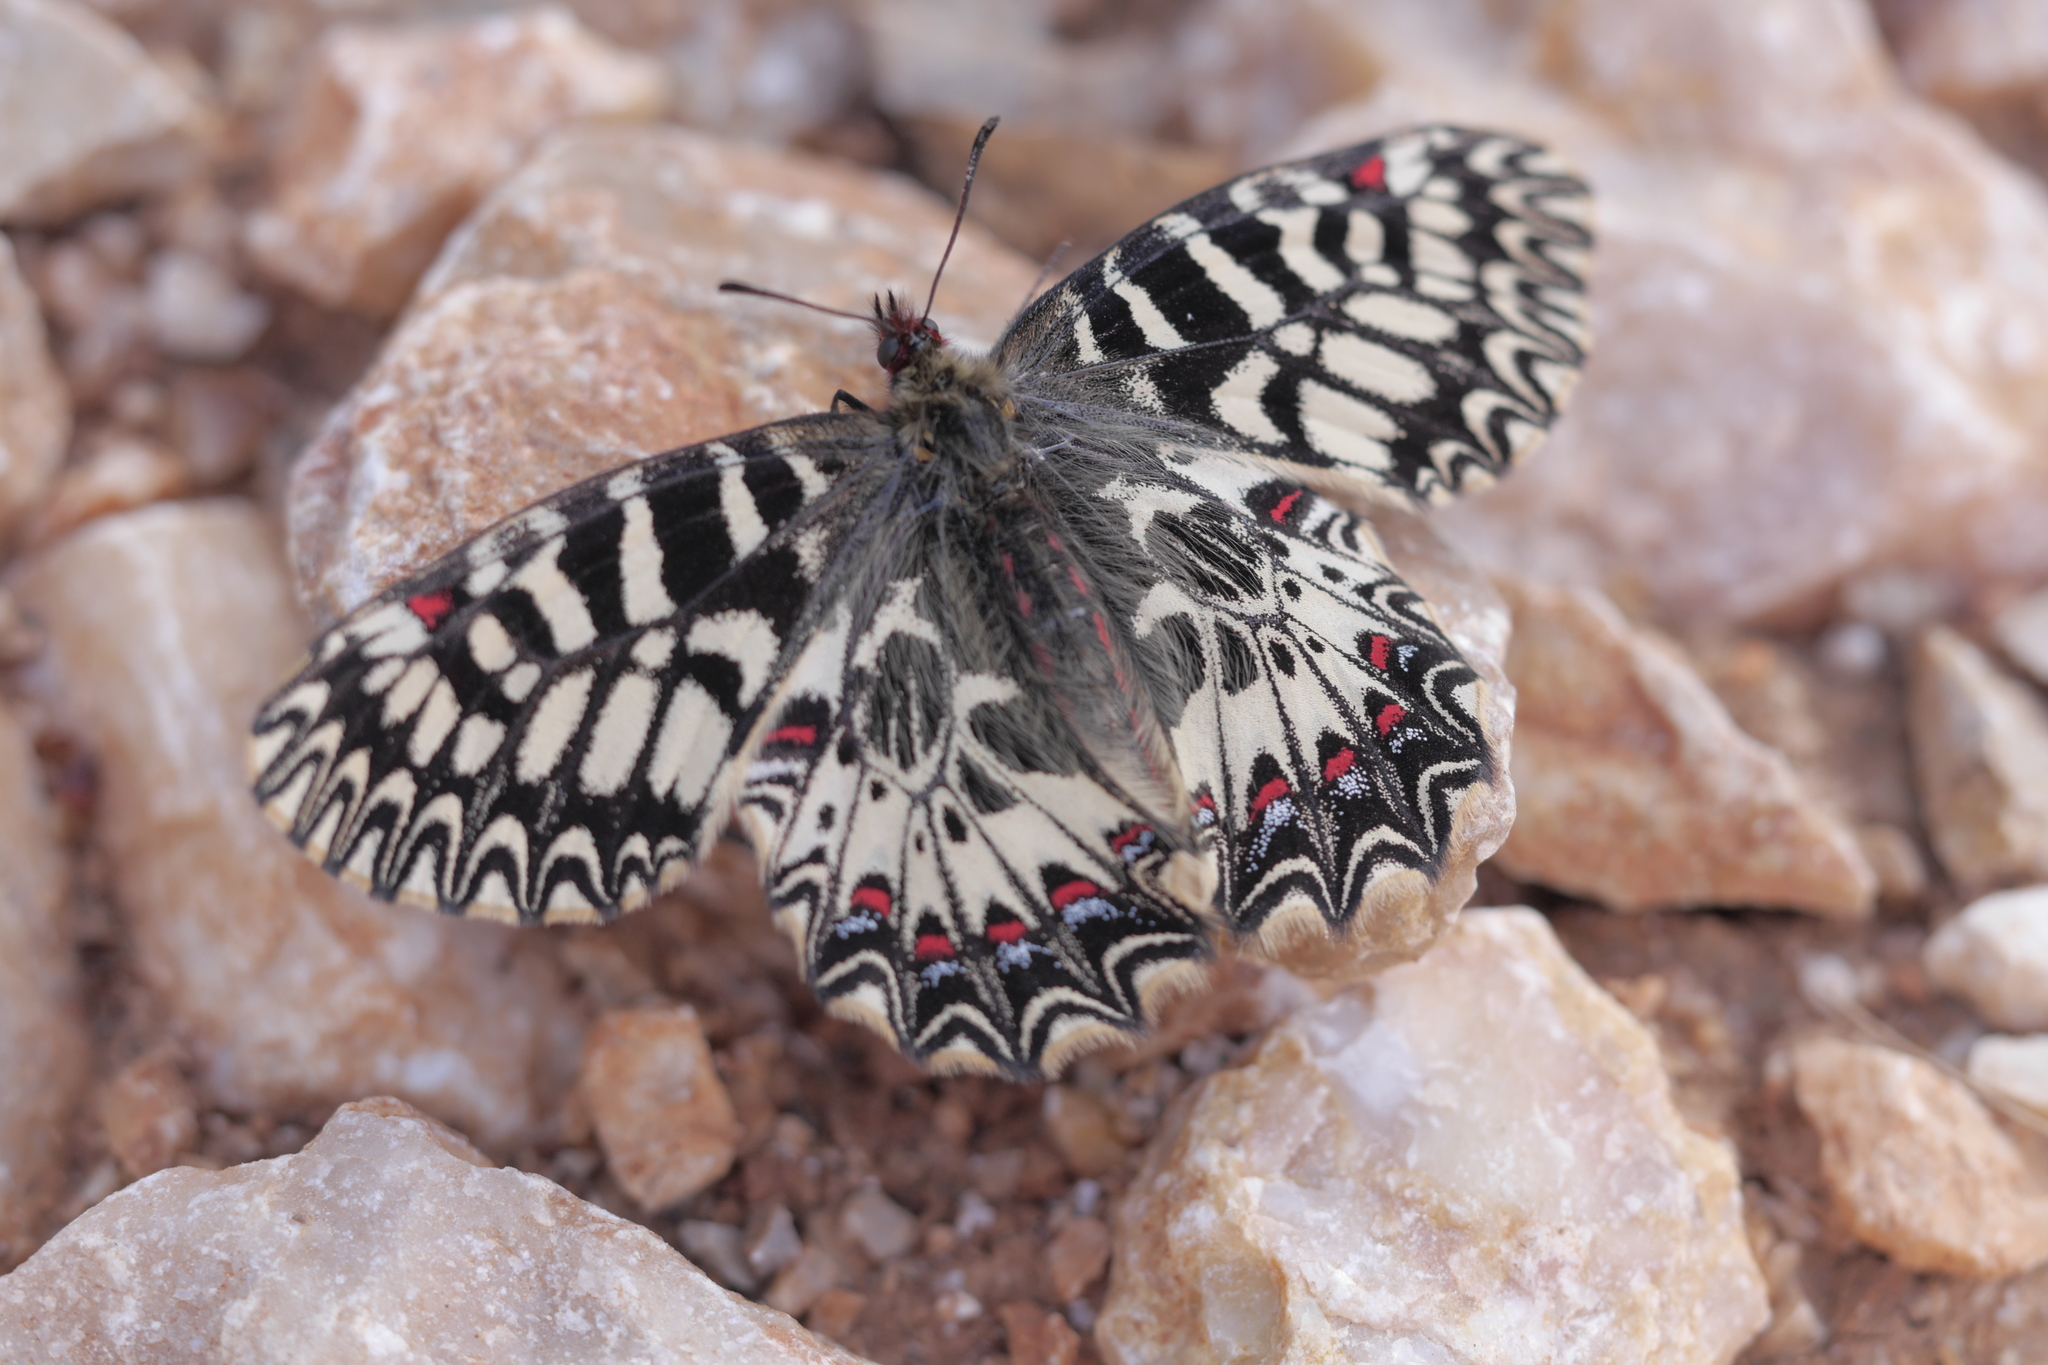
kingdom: Animalia
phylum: Arthropoda
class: Insecta
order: Lepidoptera
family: Papilionidae
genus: Zerynthia
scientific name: Zerynthia polyxena
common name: Southern festoon
